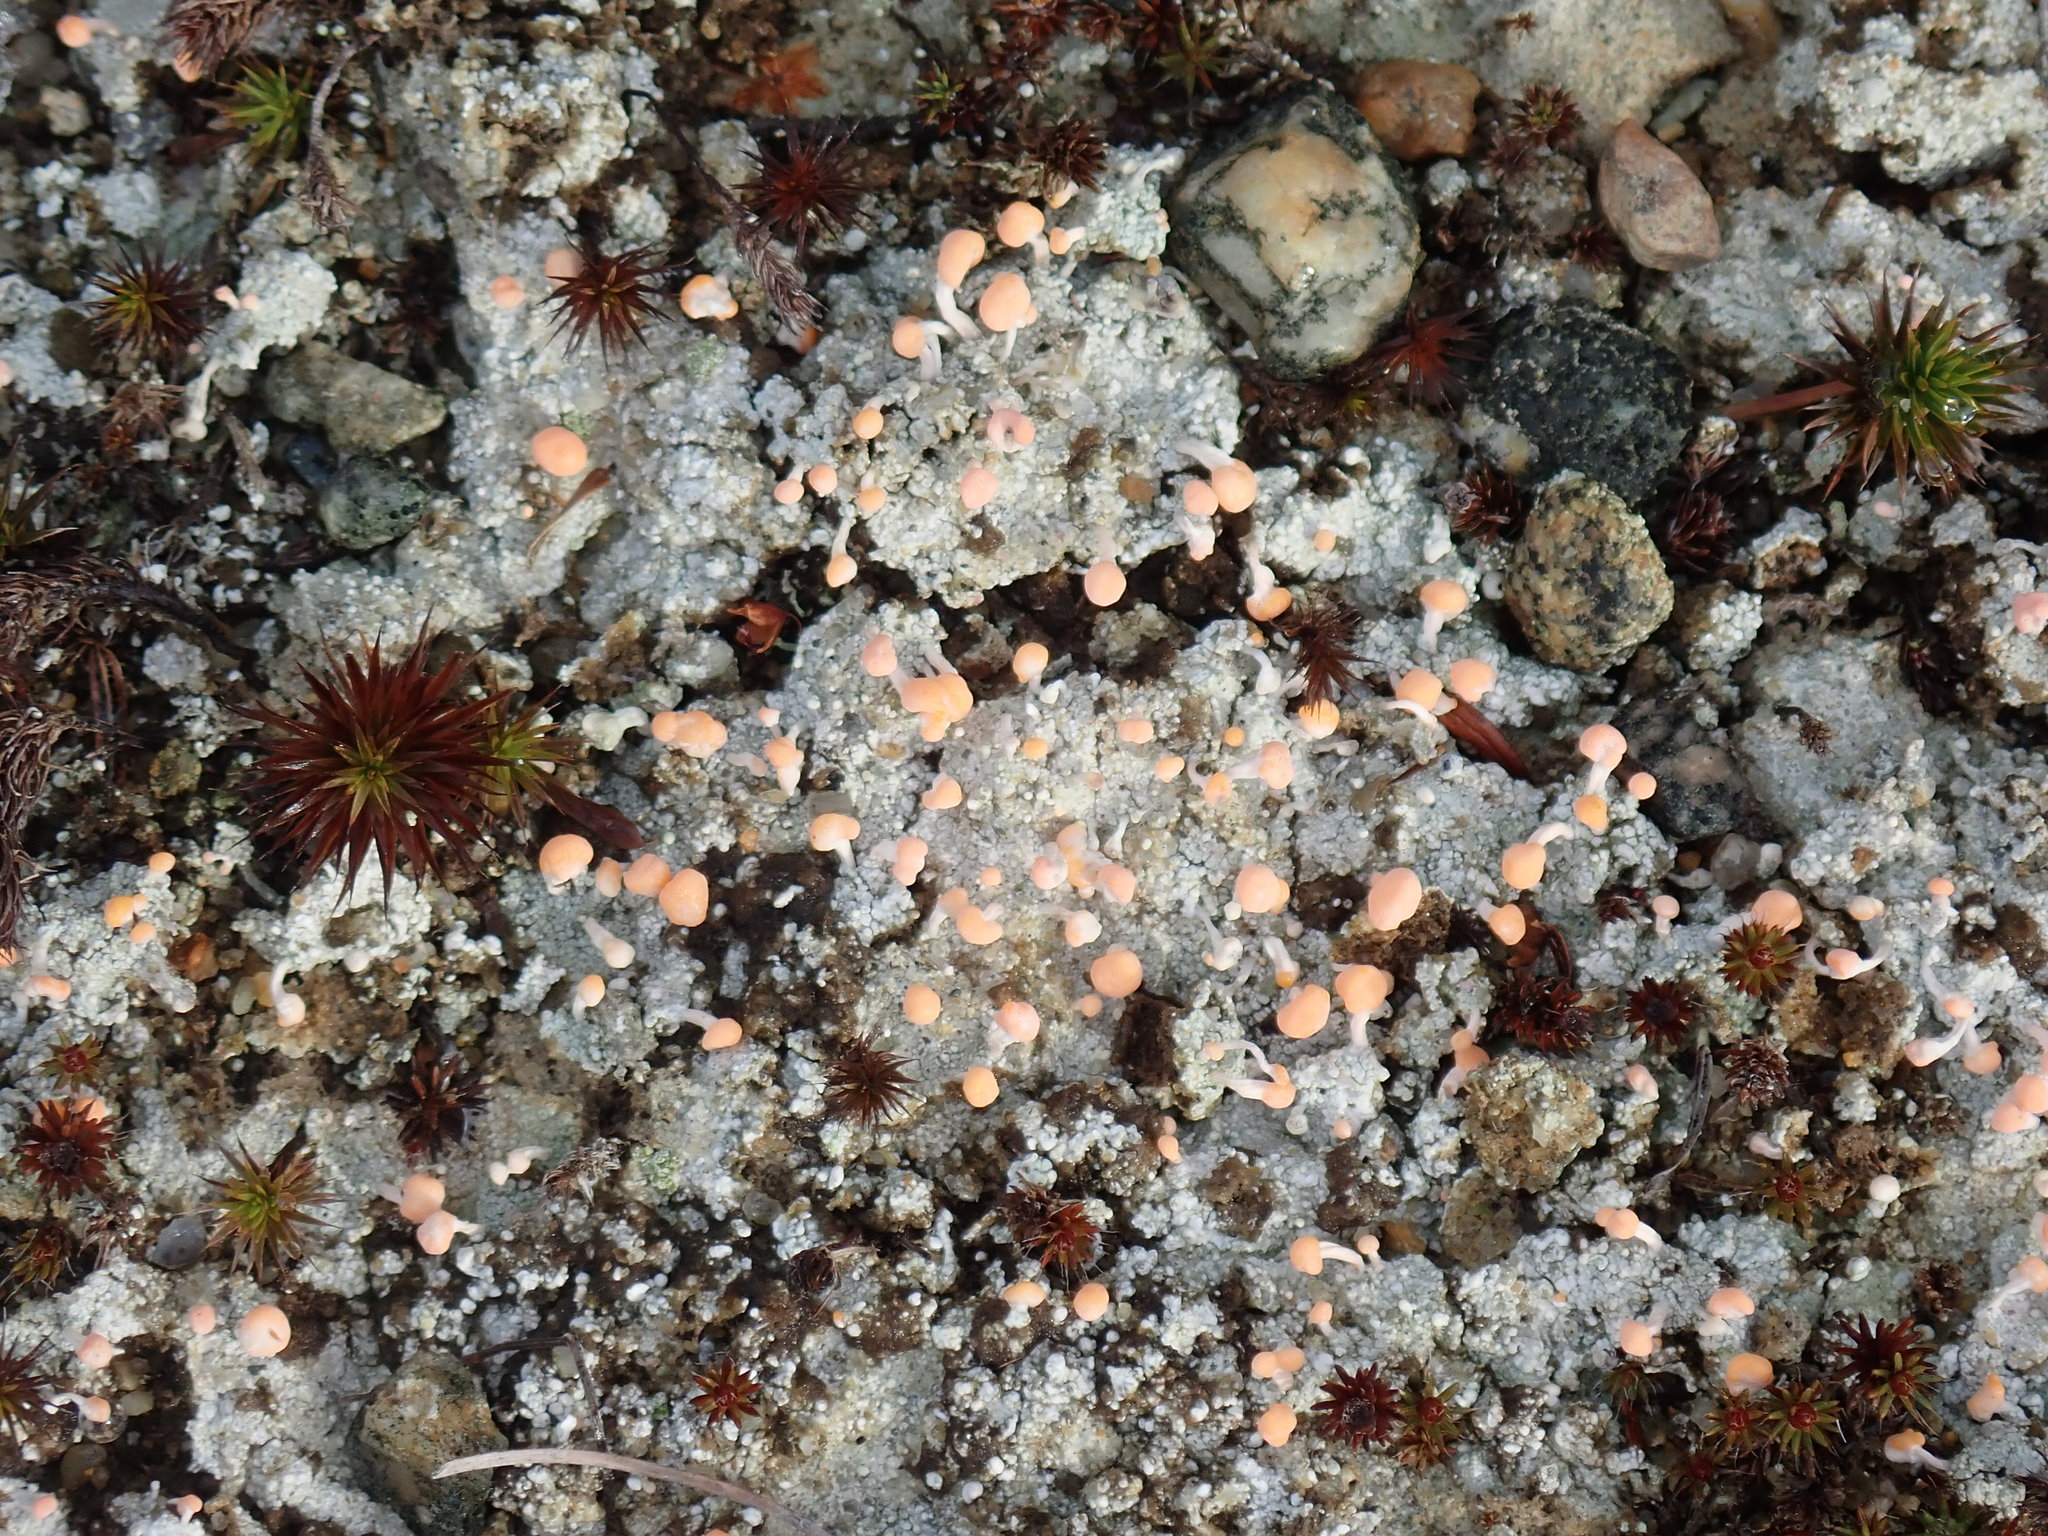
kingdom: Fungi
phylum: Ascomycota
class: Lecanoromycetes
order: Pertusariales
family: Icmadophilaceae
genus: Dibaeis
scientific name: Dibaeis baeomyces
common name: Pink earth lichen
